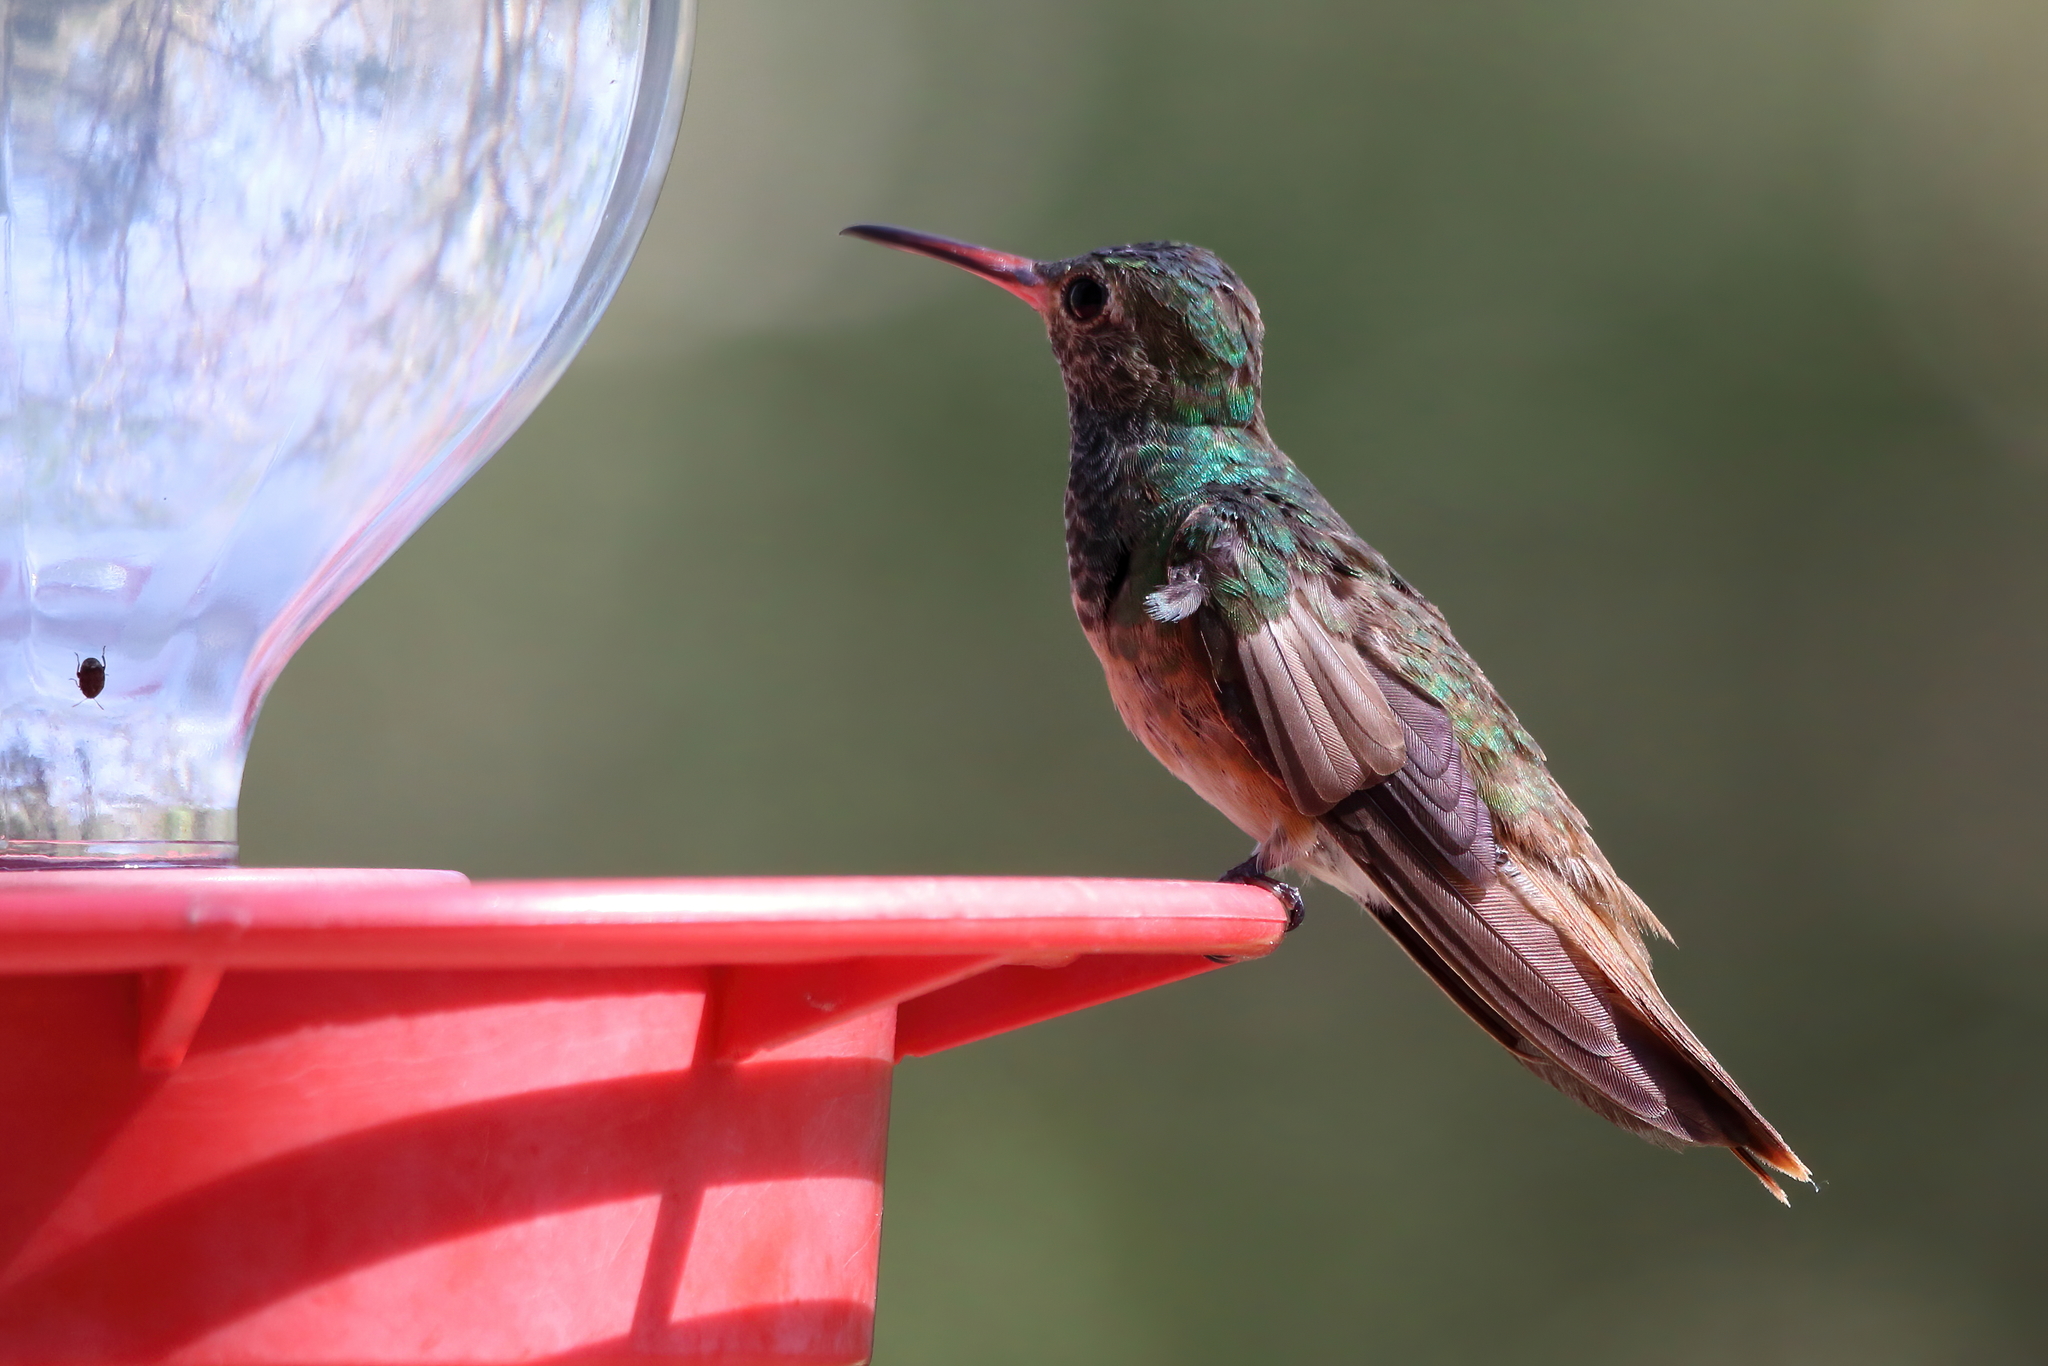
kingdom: Animalia
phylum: Chordata
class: Aves
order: Apodiformes
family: Trochilidae
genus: Amazilia
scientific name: Amazilia yucatanensis
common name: Buff-bellied hummingbird
